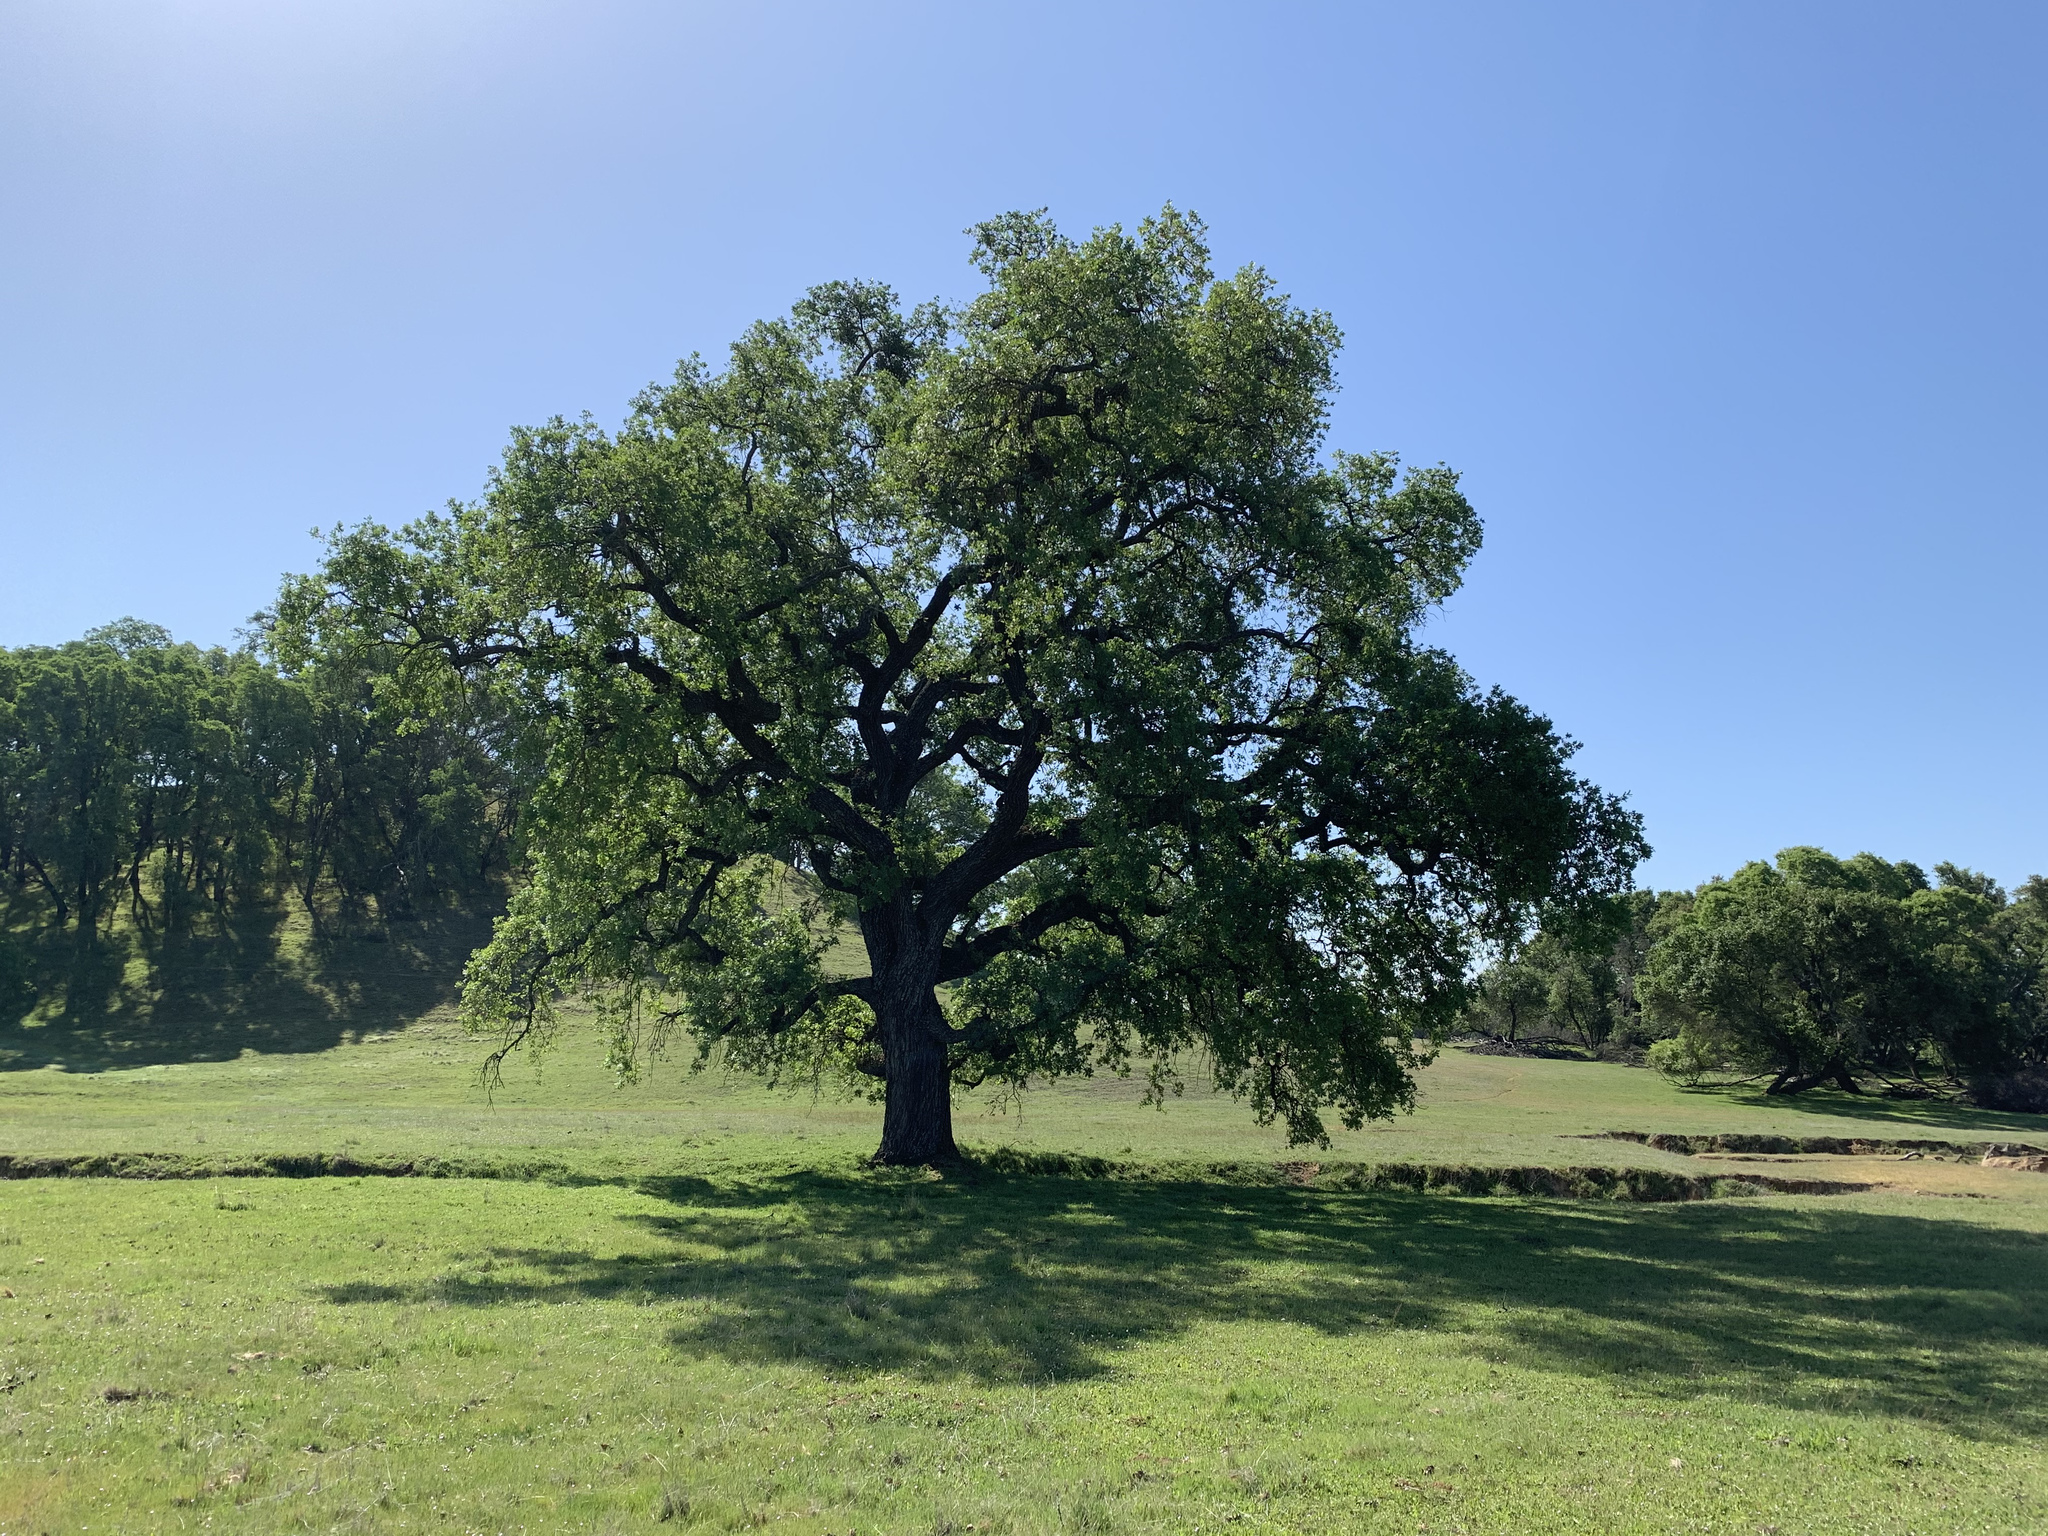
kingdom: Plantae
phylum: Tracheophyta
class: Magnoliopsida
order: Fagales
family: Fagaceae
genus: Quercus
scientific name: Quercus lobata
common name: Valley oak
